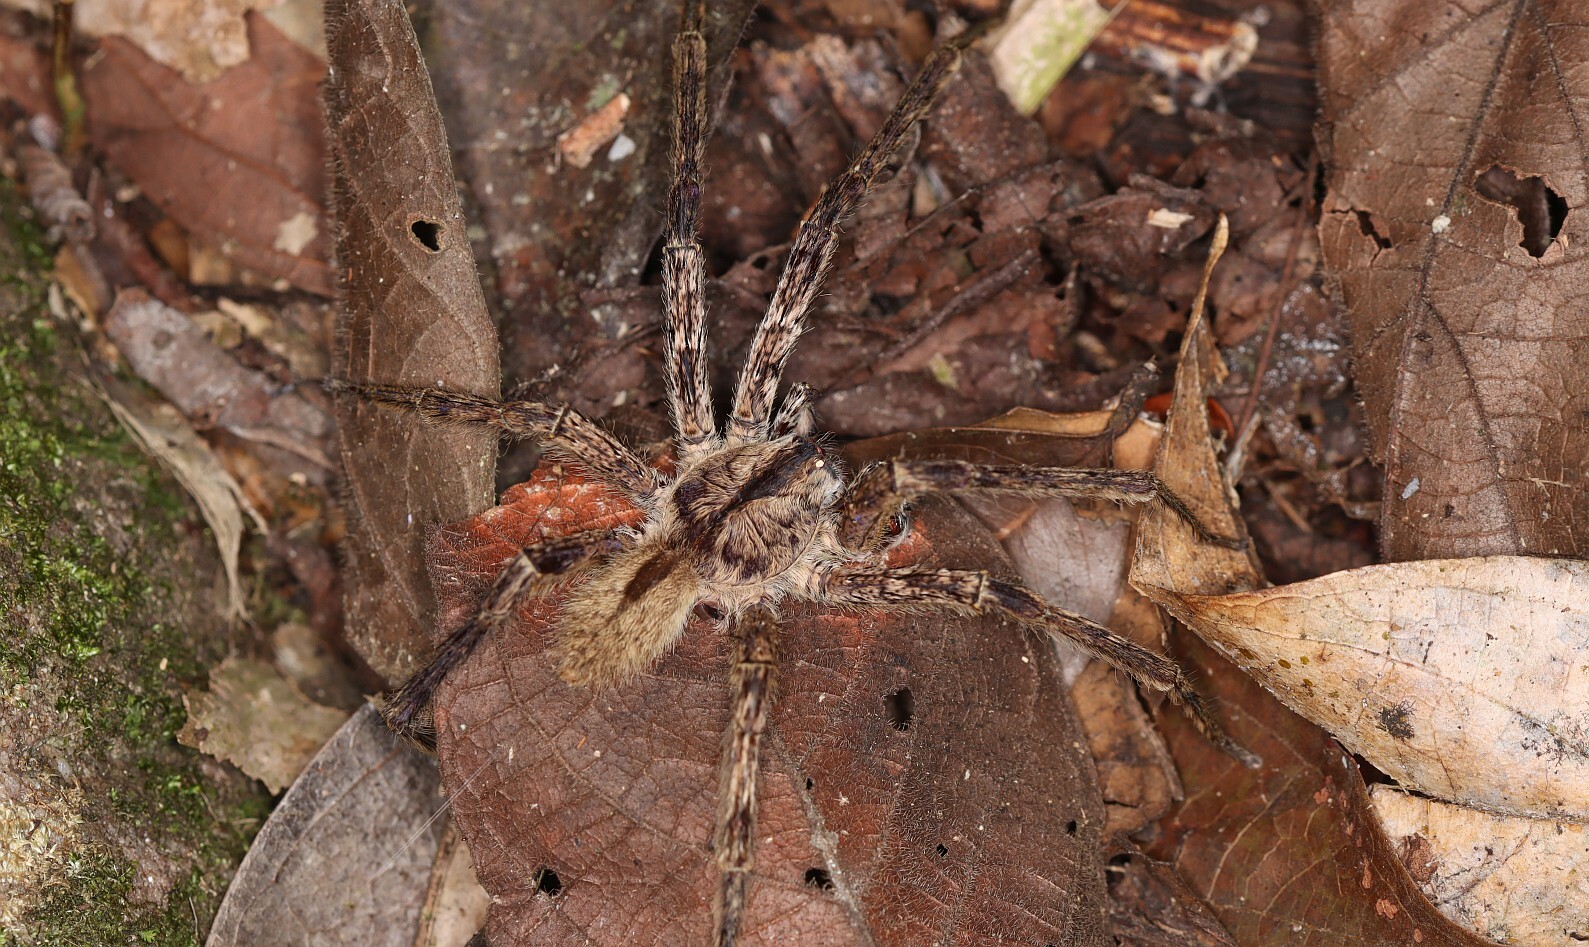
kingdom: Animalia
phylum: Arthropoda
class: Arachnida
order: Araneae
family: Ctenidae
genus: Phoneutria
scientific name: Phoneutria boliviensis
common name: Wandering spiders
